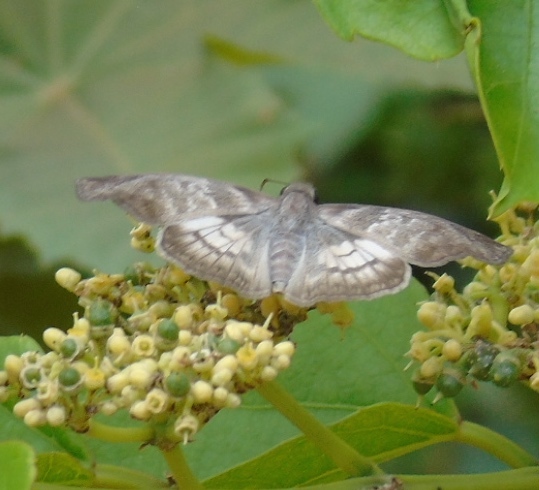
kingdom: Animalia
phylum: Arthropoda
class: Insecta
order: Lepidoptera
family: Hesperiidae
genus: Mylon
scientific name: Mylon pelopidas
